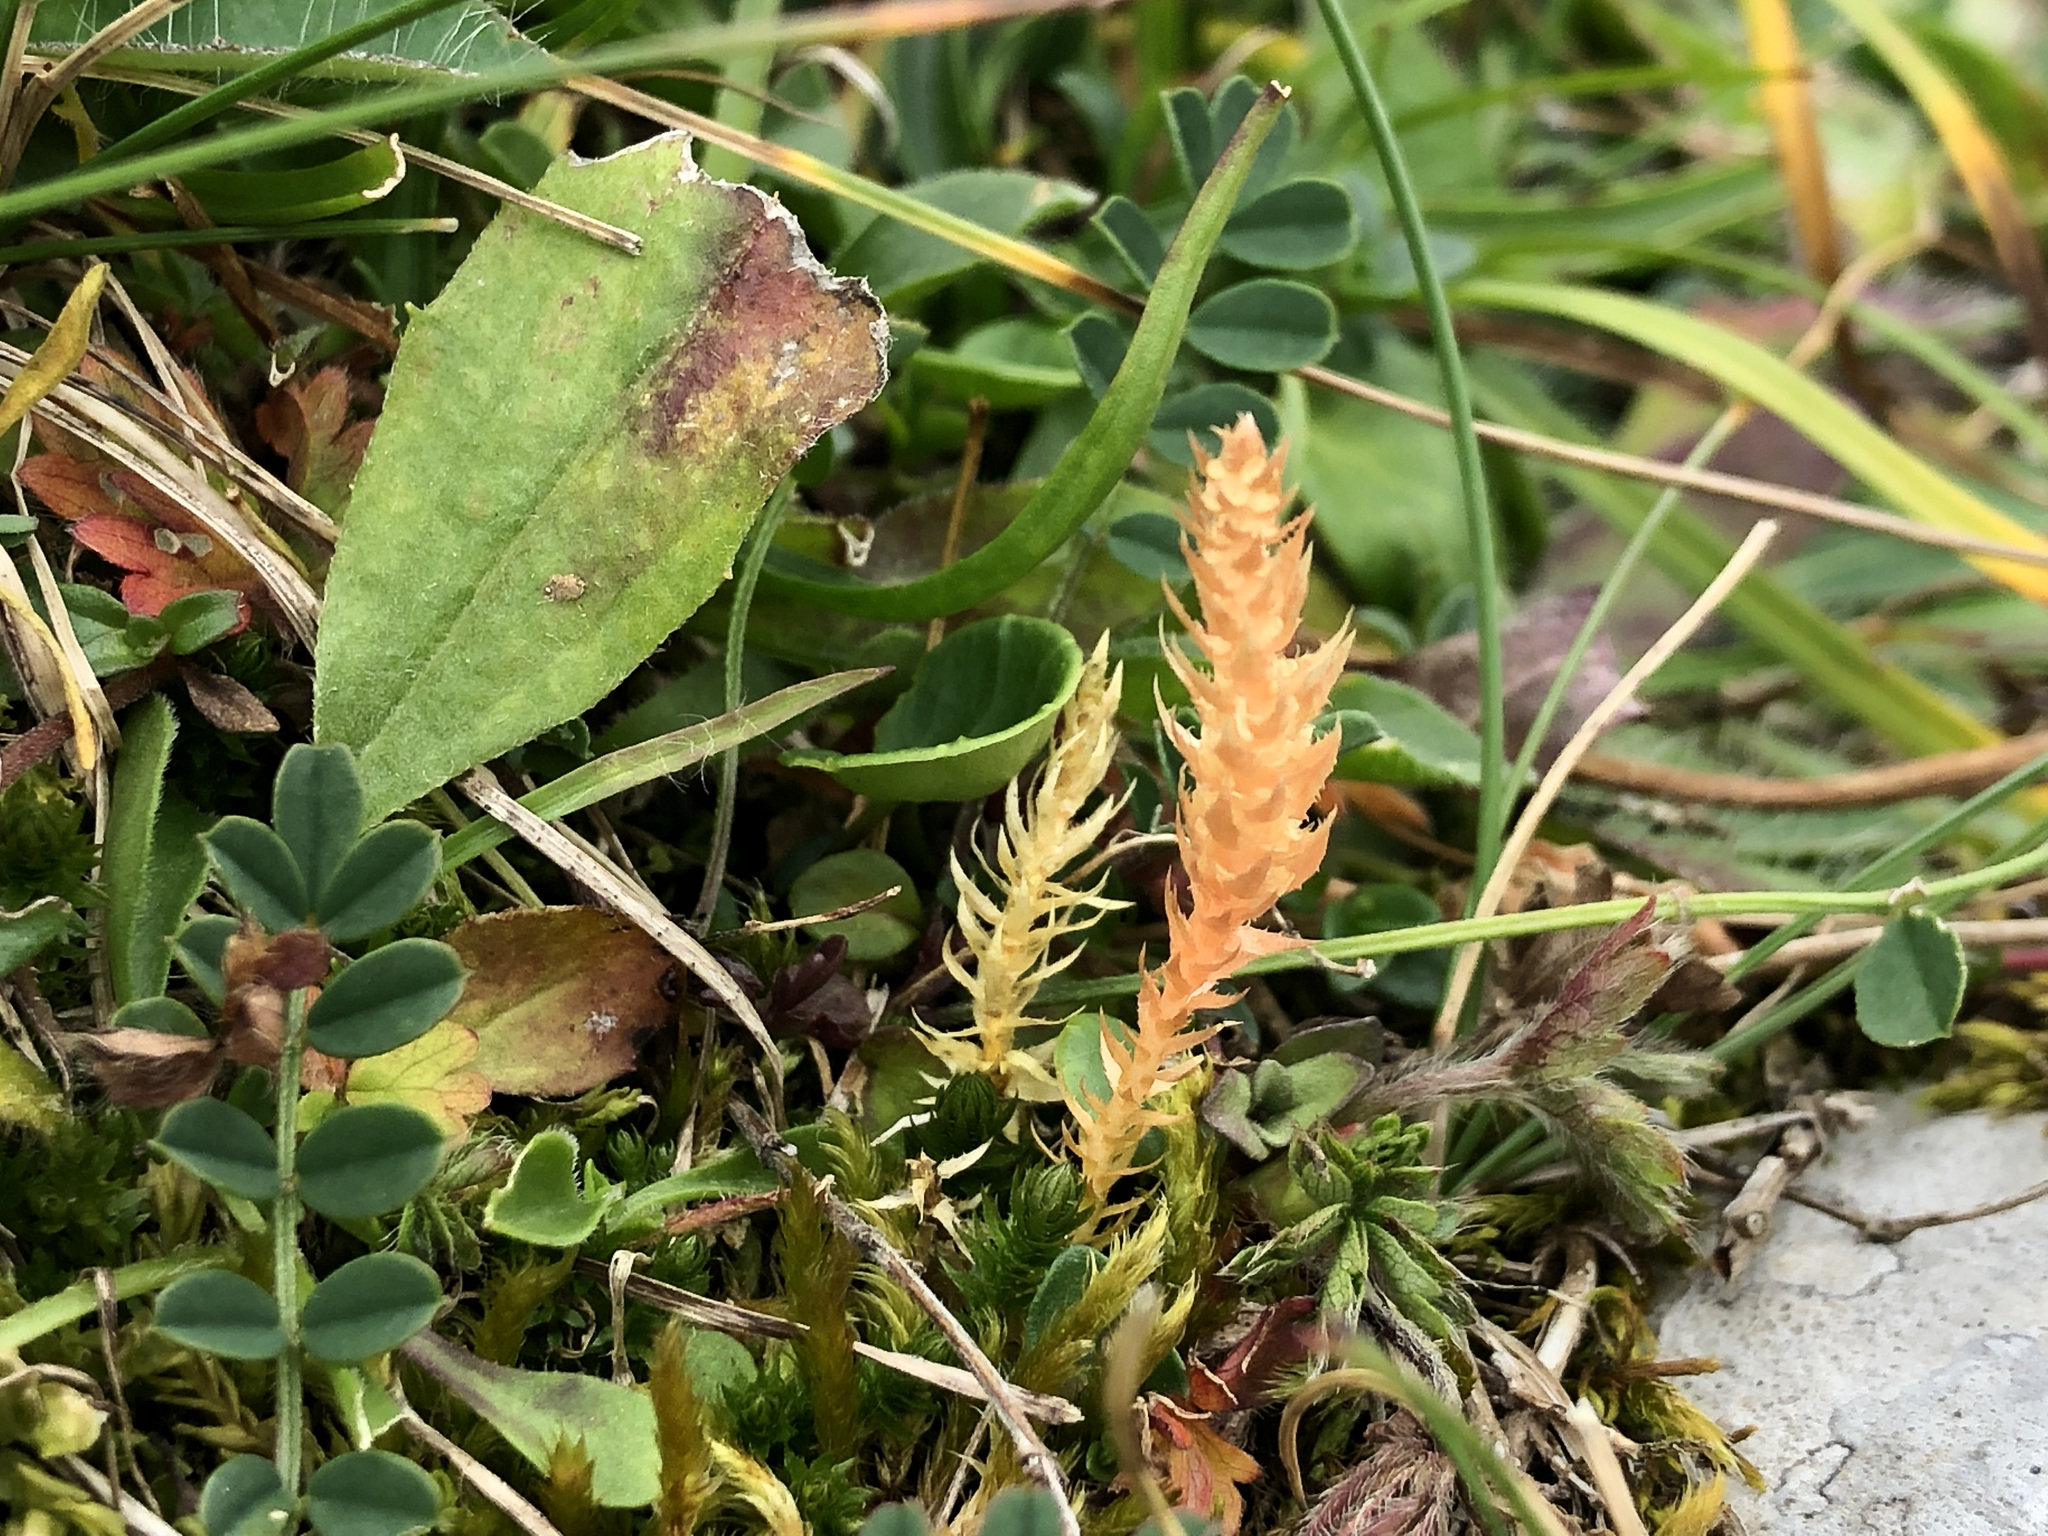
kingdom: Plantae
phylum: Tracheophyta
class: Lycopodiopsida
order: Selaginellales
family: Selaginellaceae
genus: Selaginella
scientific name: Selaginella selaginoides
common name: Prickly mountain-moss
